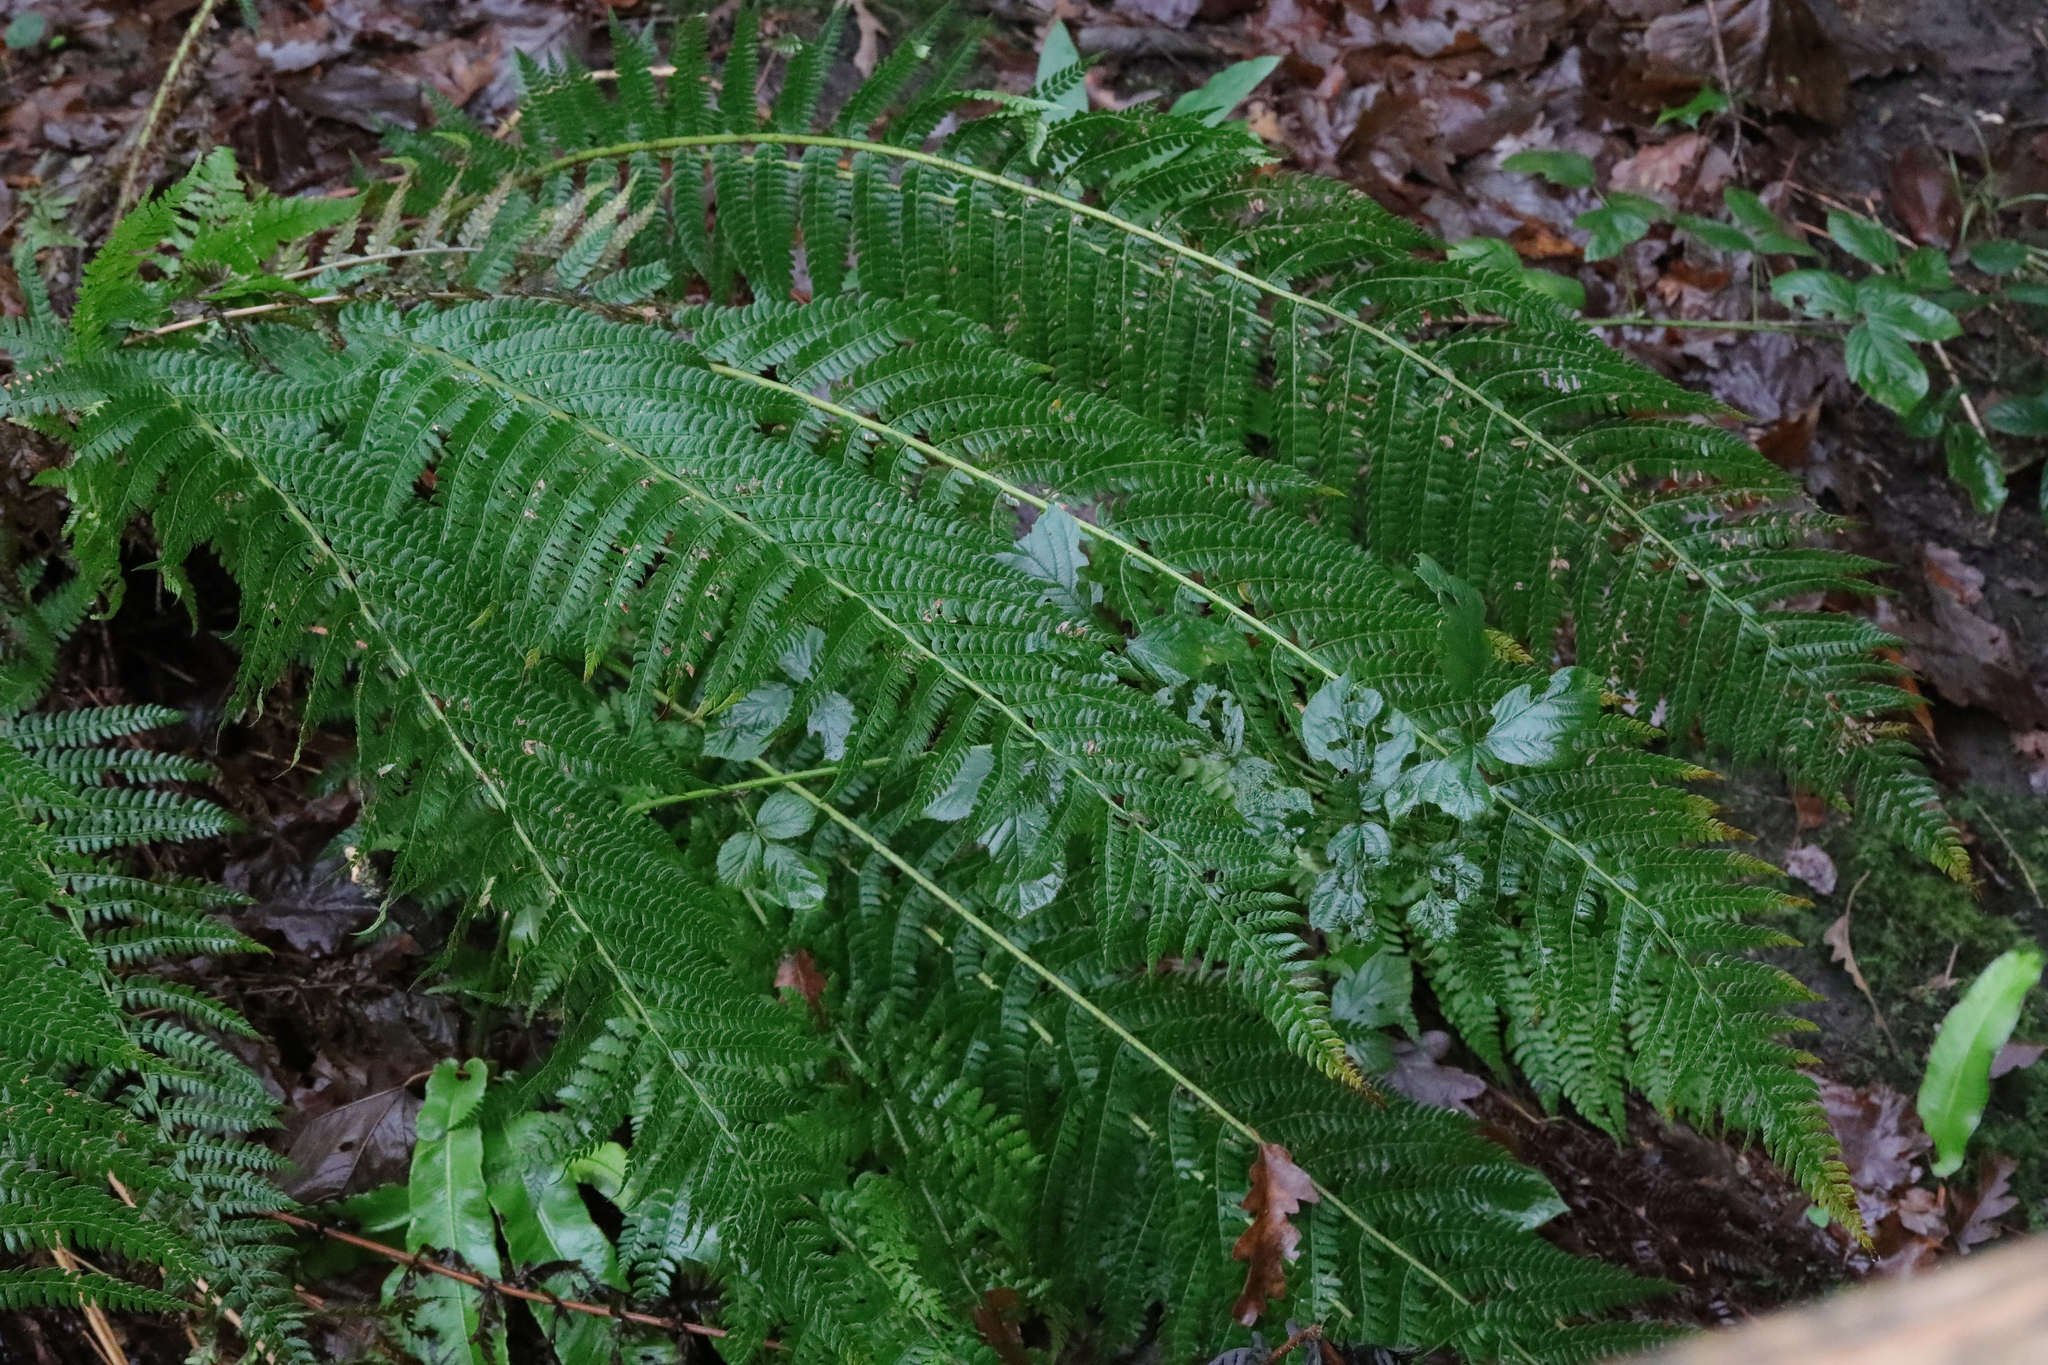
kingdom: Plantae
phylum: Tracheophyta
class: Polypodiopsida
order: Polypodiales
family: Dryopteridaceae
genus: Polystichum
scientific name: Polystichum setiferum
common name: Soft shield-fern
